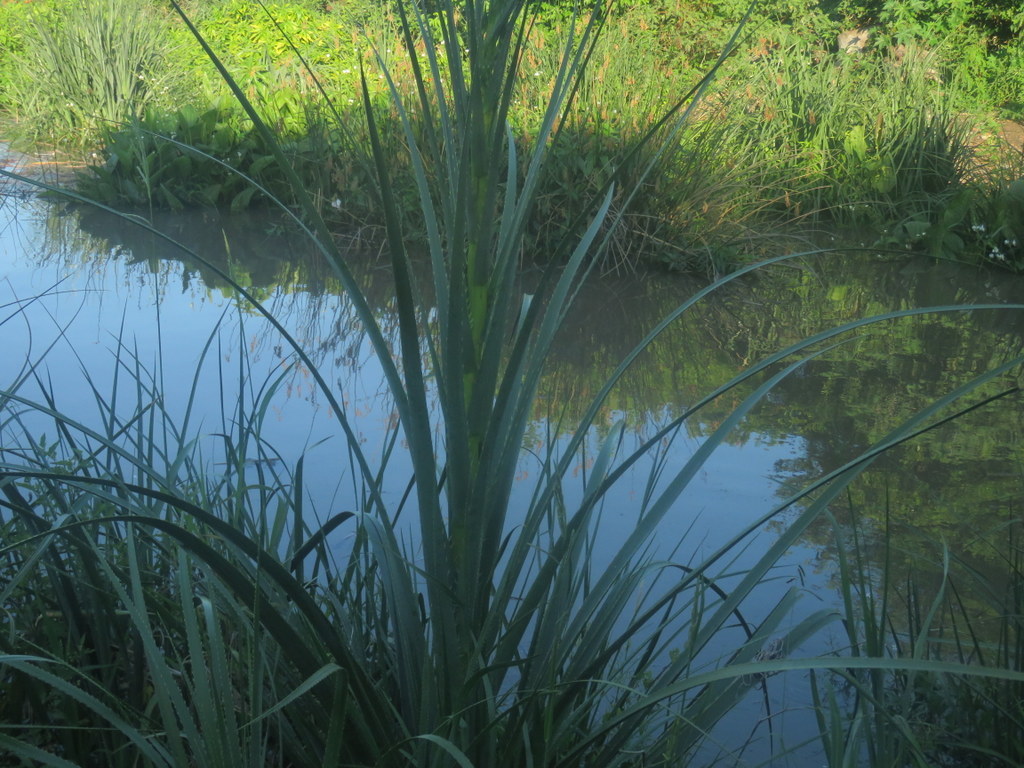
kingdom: Plantae
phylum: Tracheophyta
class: Magnoliopsida
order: Apiales
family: Apiaceae
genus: Eryngium
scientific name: Eryngium pandanifolium
